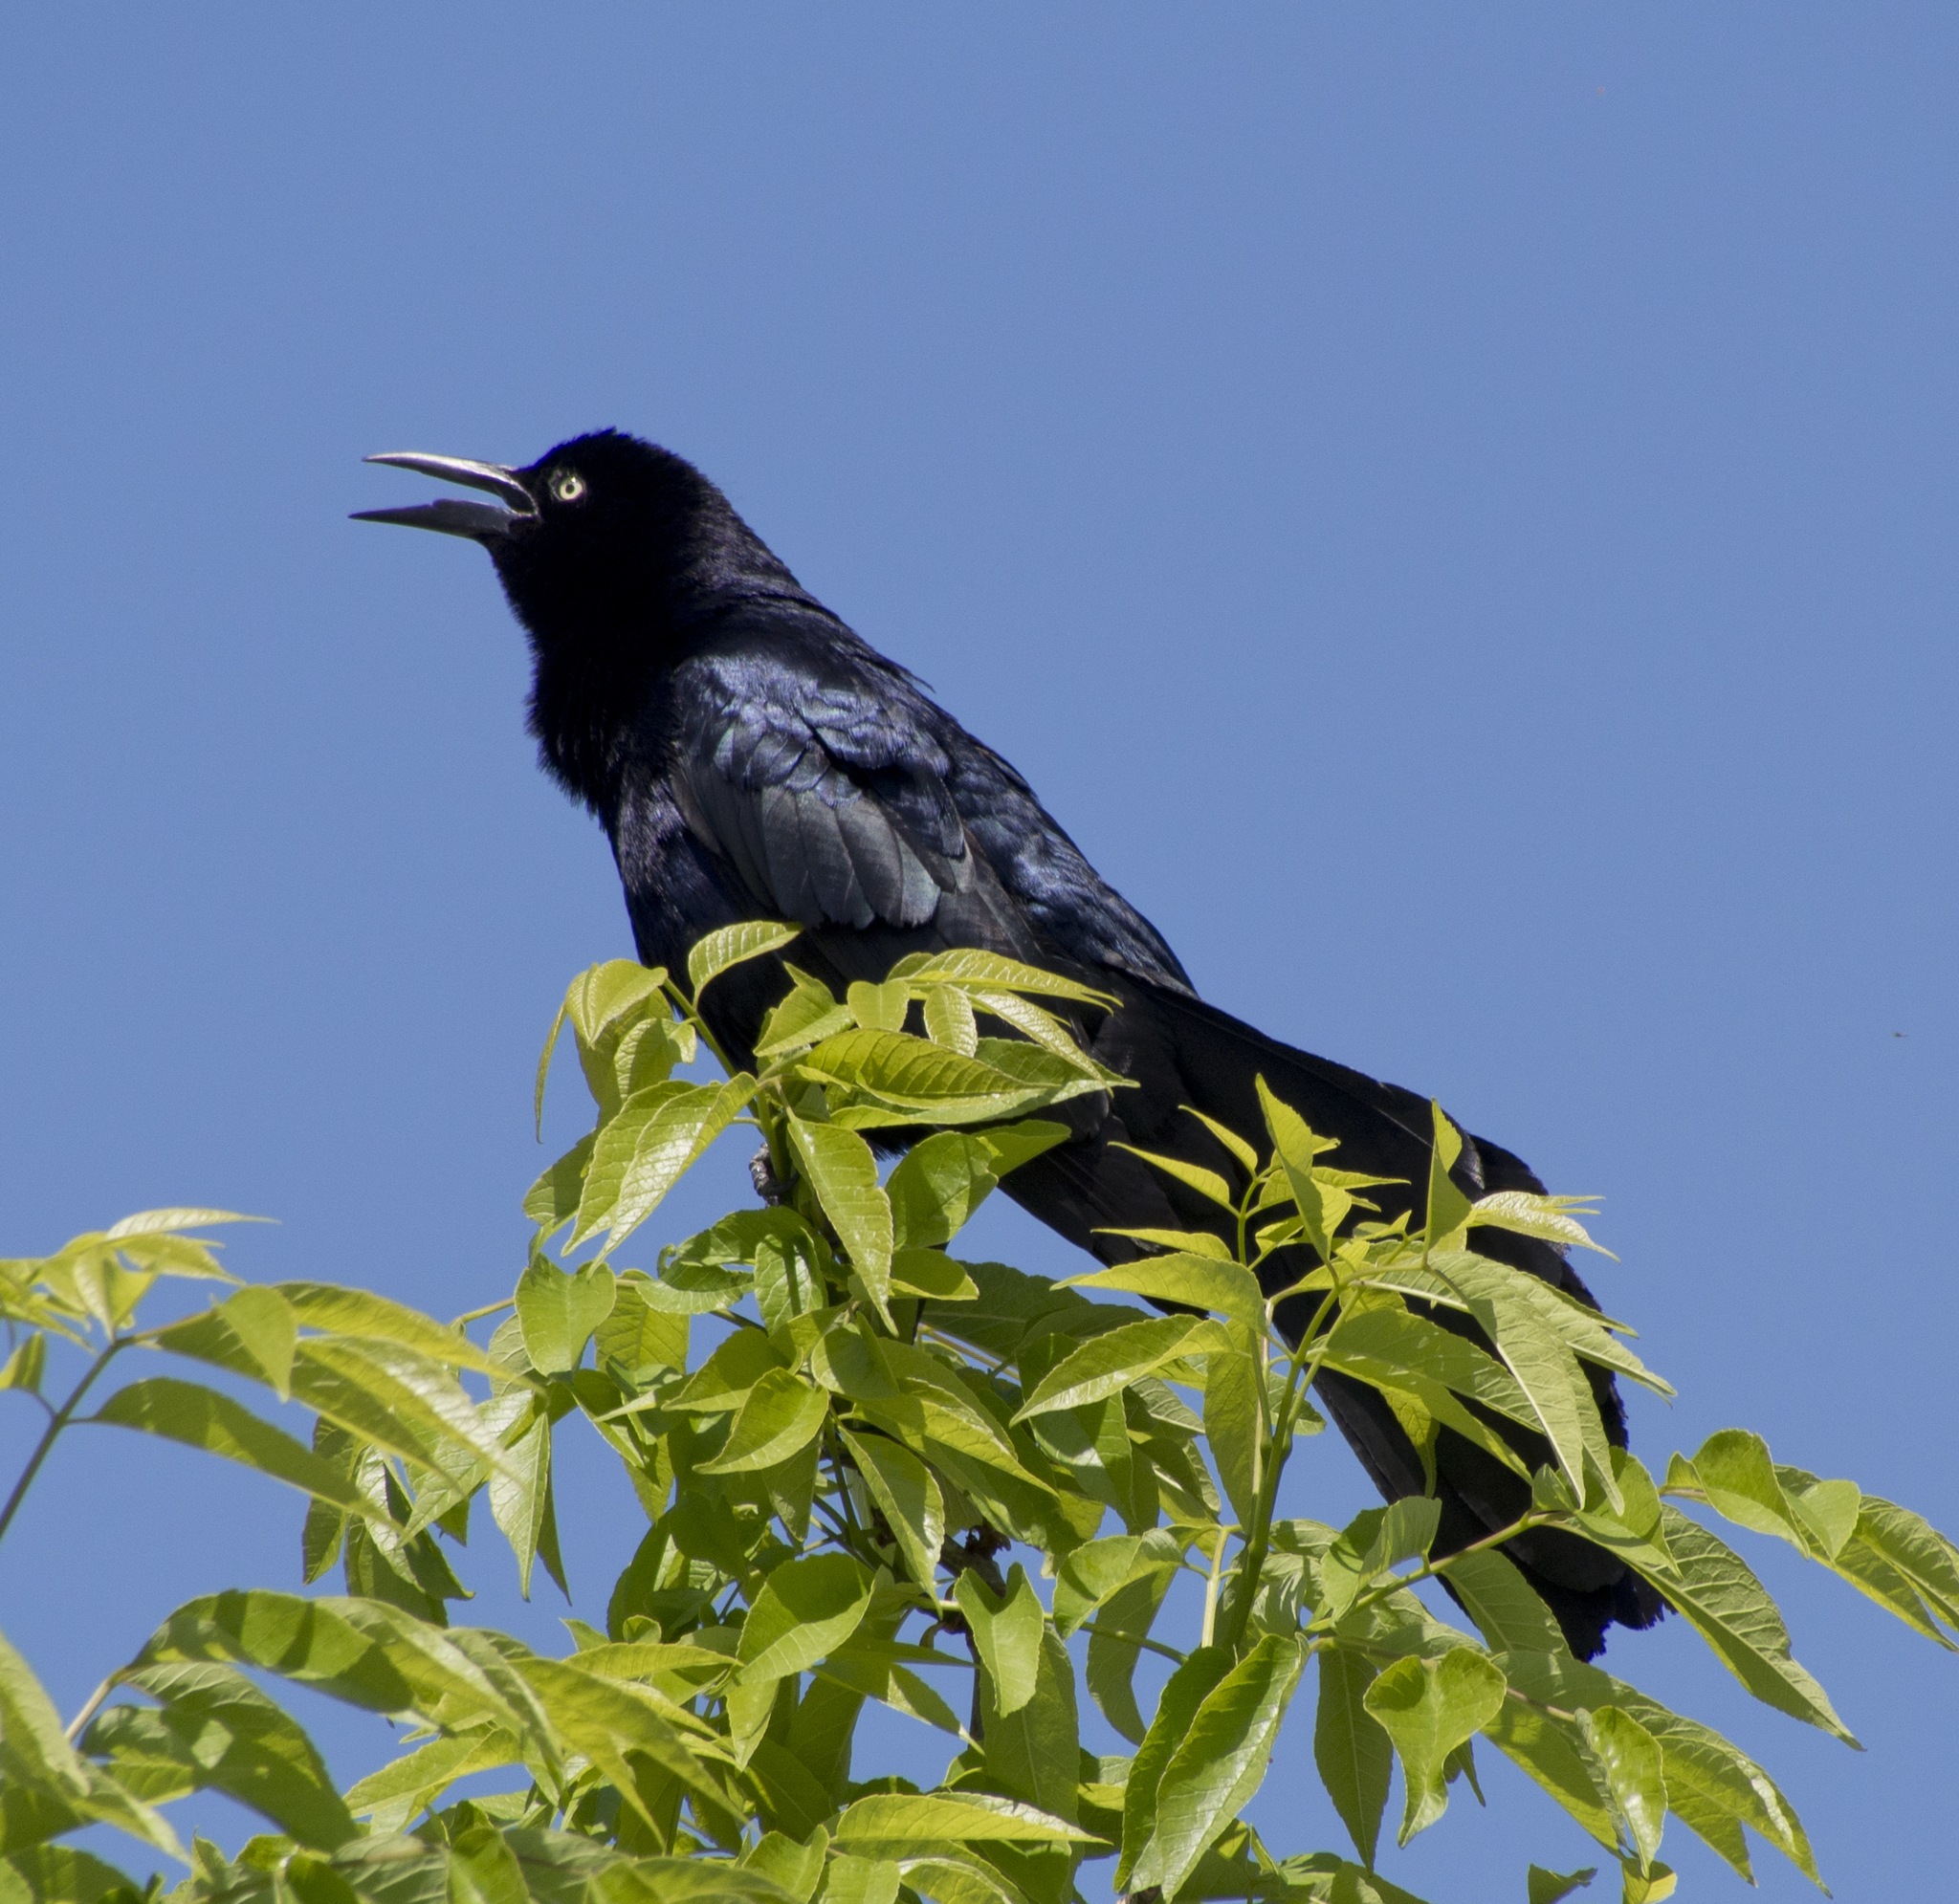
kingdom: Animalia
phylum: Chordata
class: Aves
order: Passeriformes
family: Icteridae
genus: Quiscalus
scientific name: Quiscalus mexicanus
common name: Great-tailed grackle
